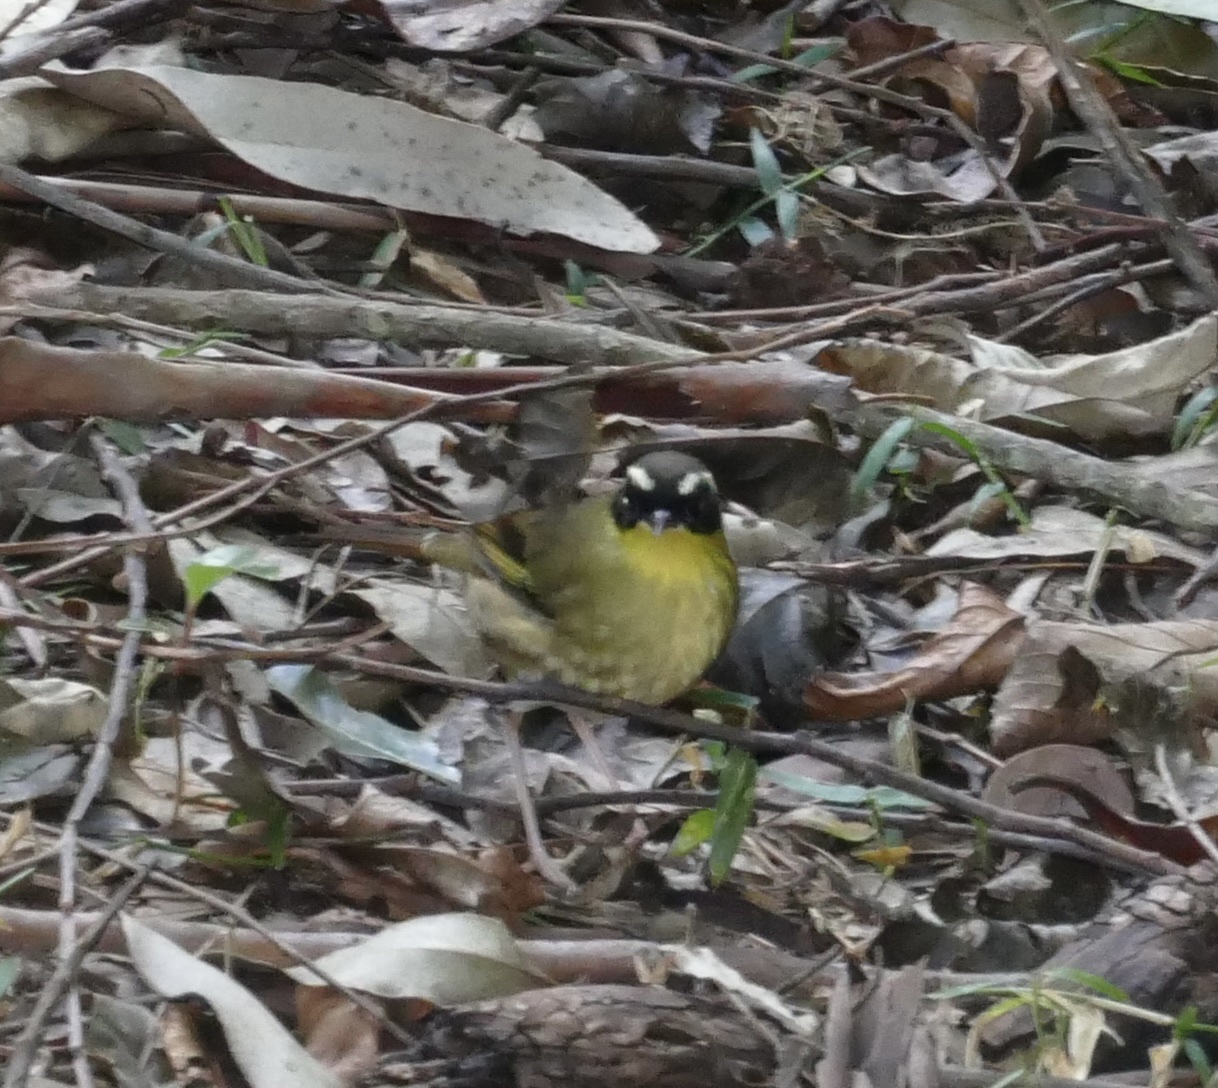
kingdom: Animalia
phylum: Chordata
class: Aves
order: Passeriformes
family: Acanthizidae
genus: Sericornis
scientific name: Sericornis citreogularis
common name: Yellow-throated scrubwren
